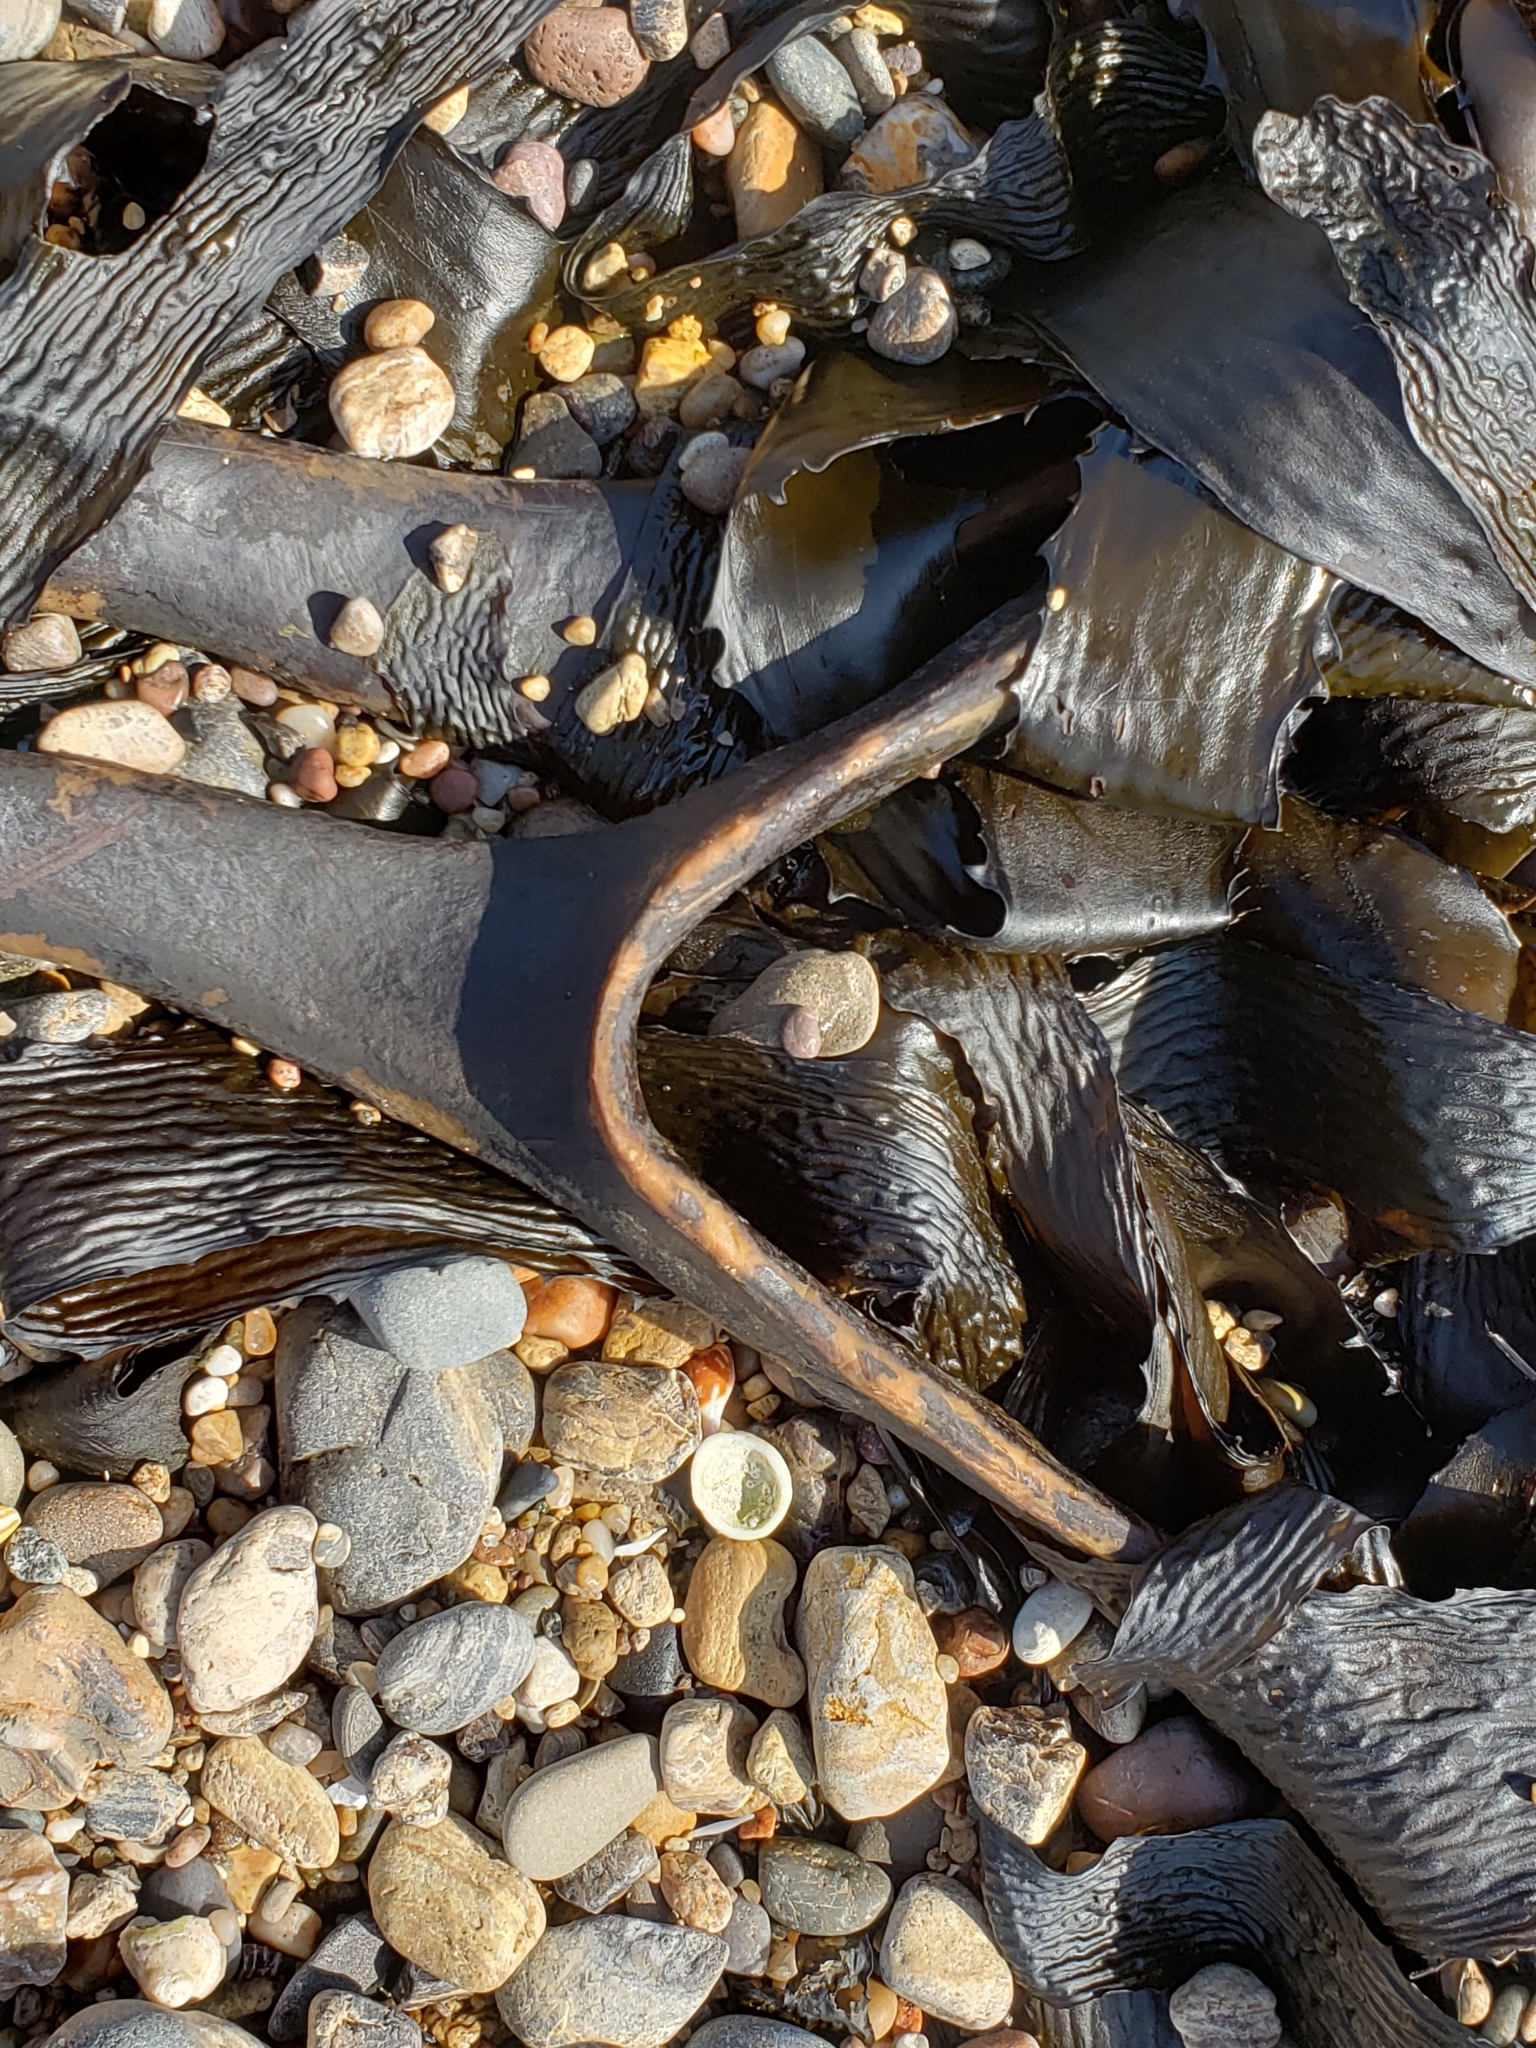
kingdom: Chromista
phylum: Ochrophyta
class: Phaeophyceae
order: Laminariales
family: Lessoniaceae
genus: Eisenia
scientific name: Eisenia arborea
